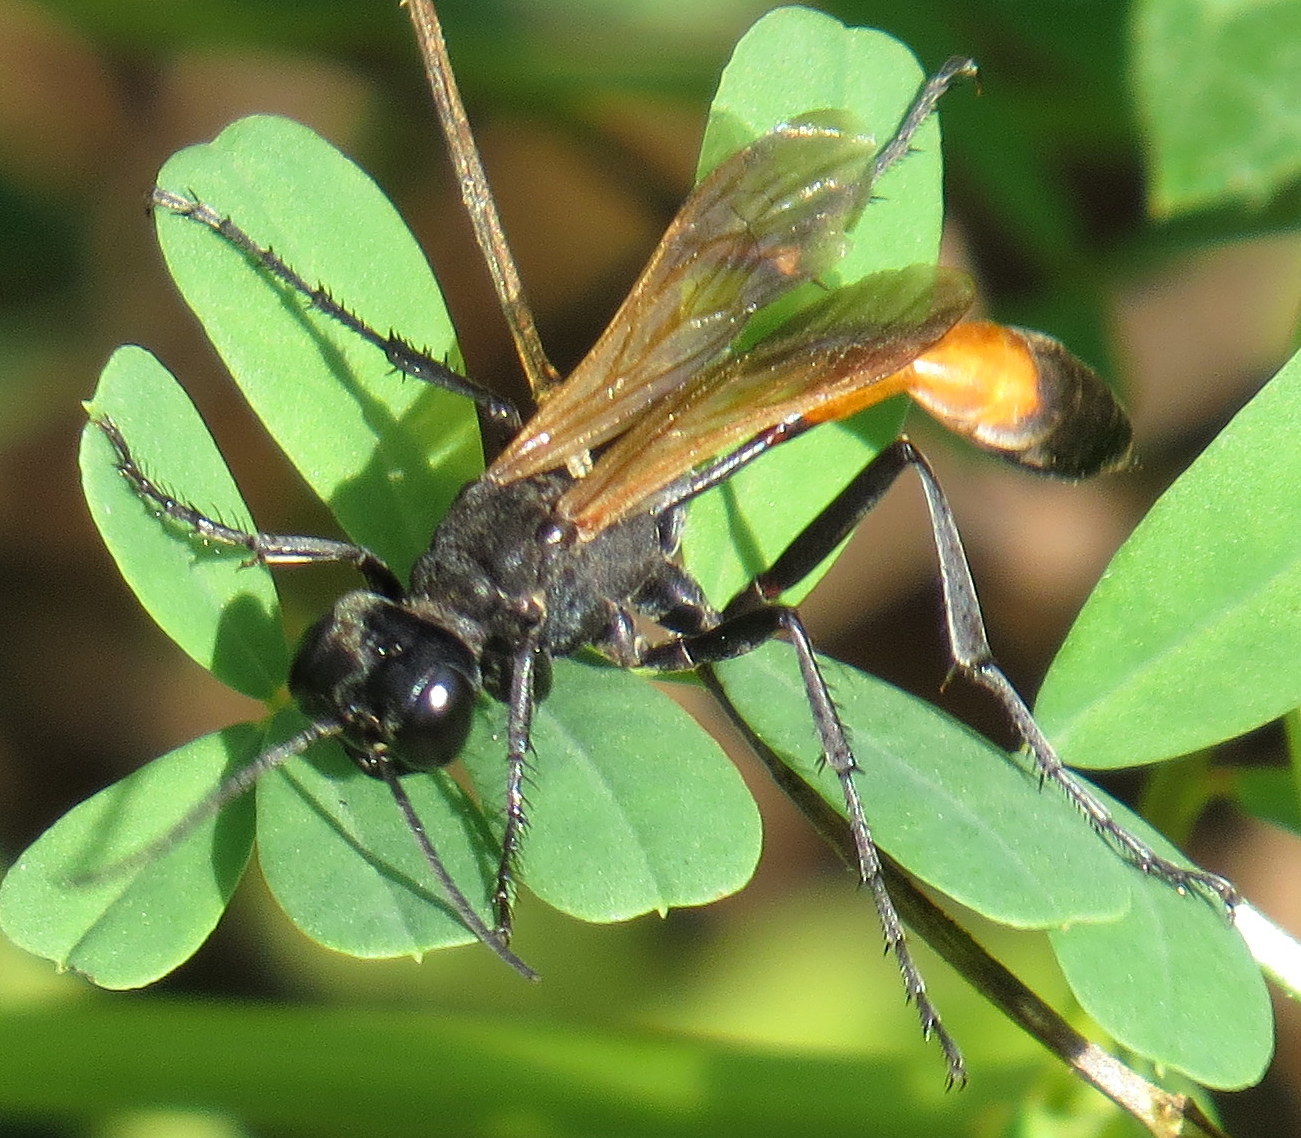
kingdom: Animalia
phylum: Arthropoda
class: Insecta
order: Hymenoptera
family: Sphecidae
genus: Ammophila
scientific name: Ammophila pictipennis
